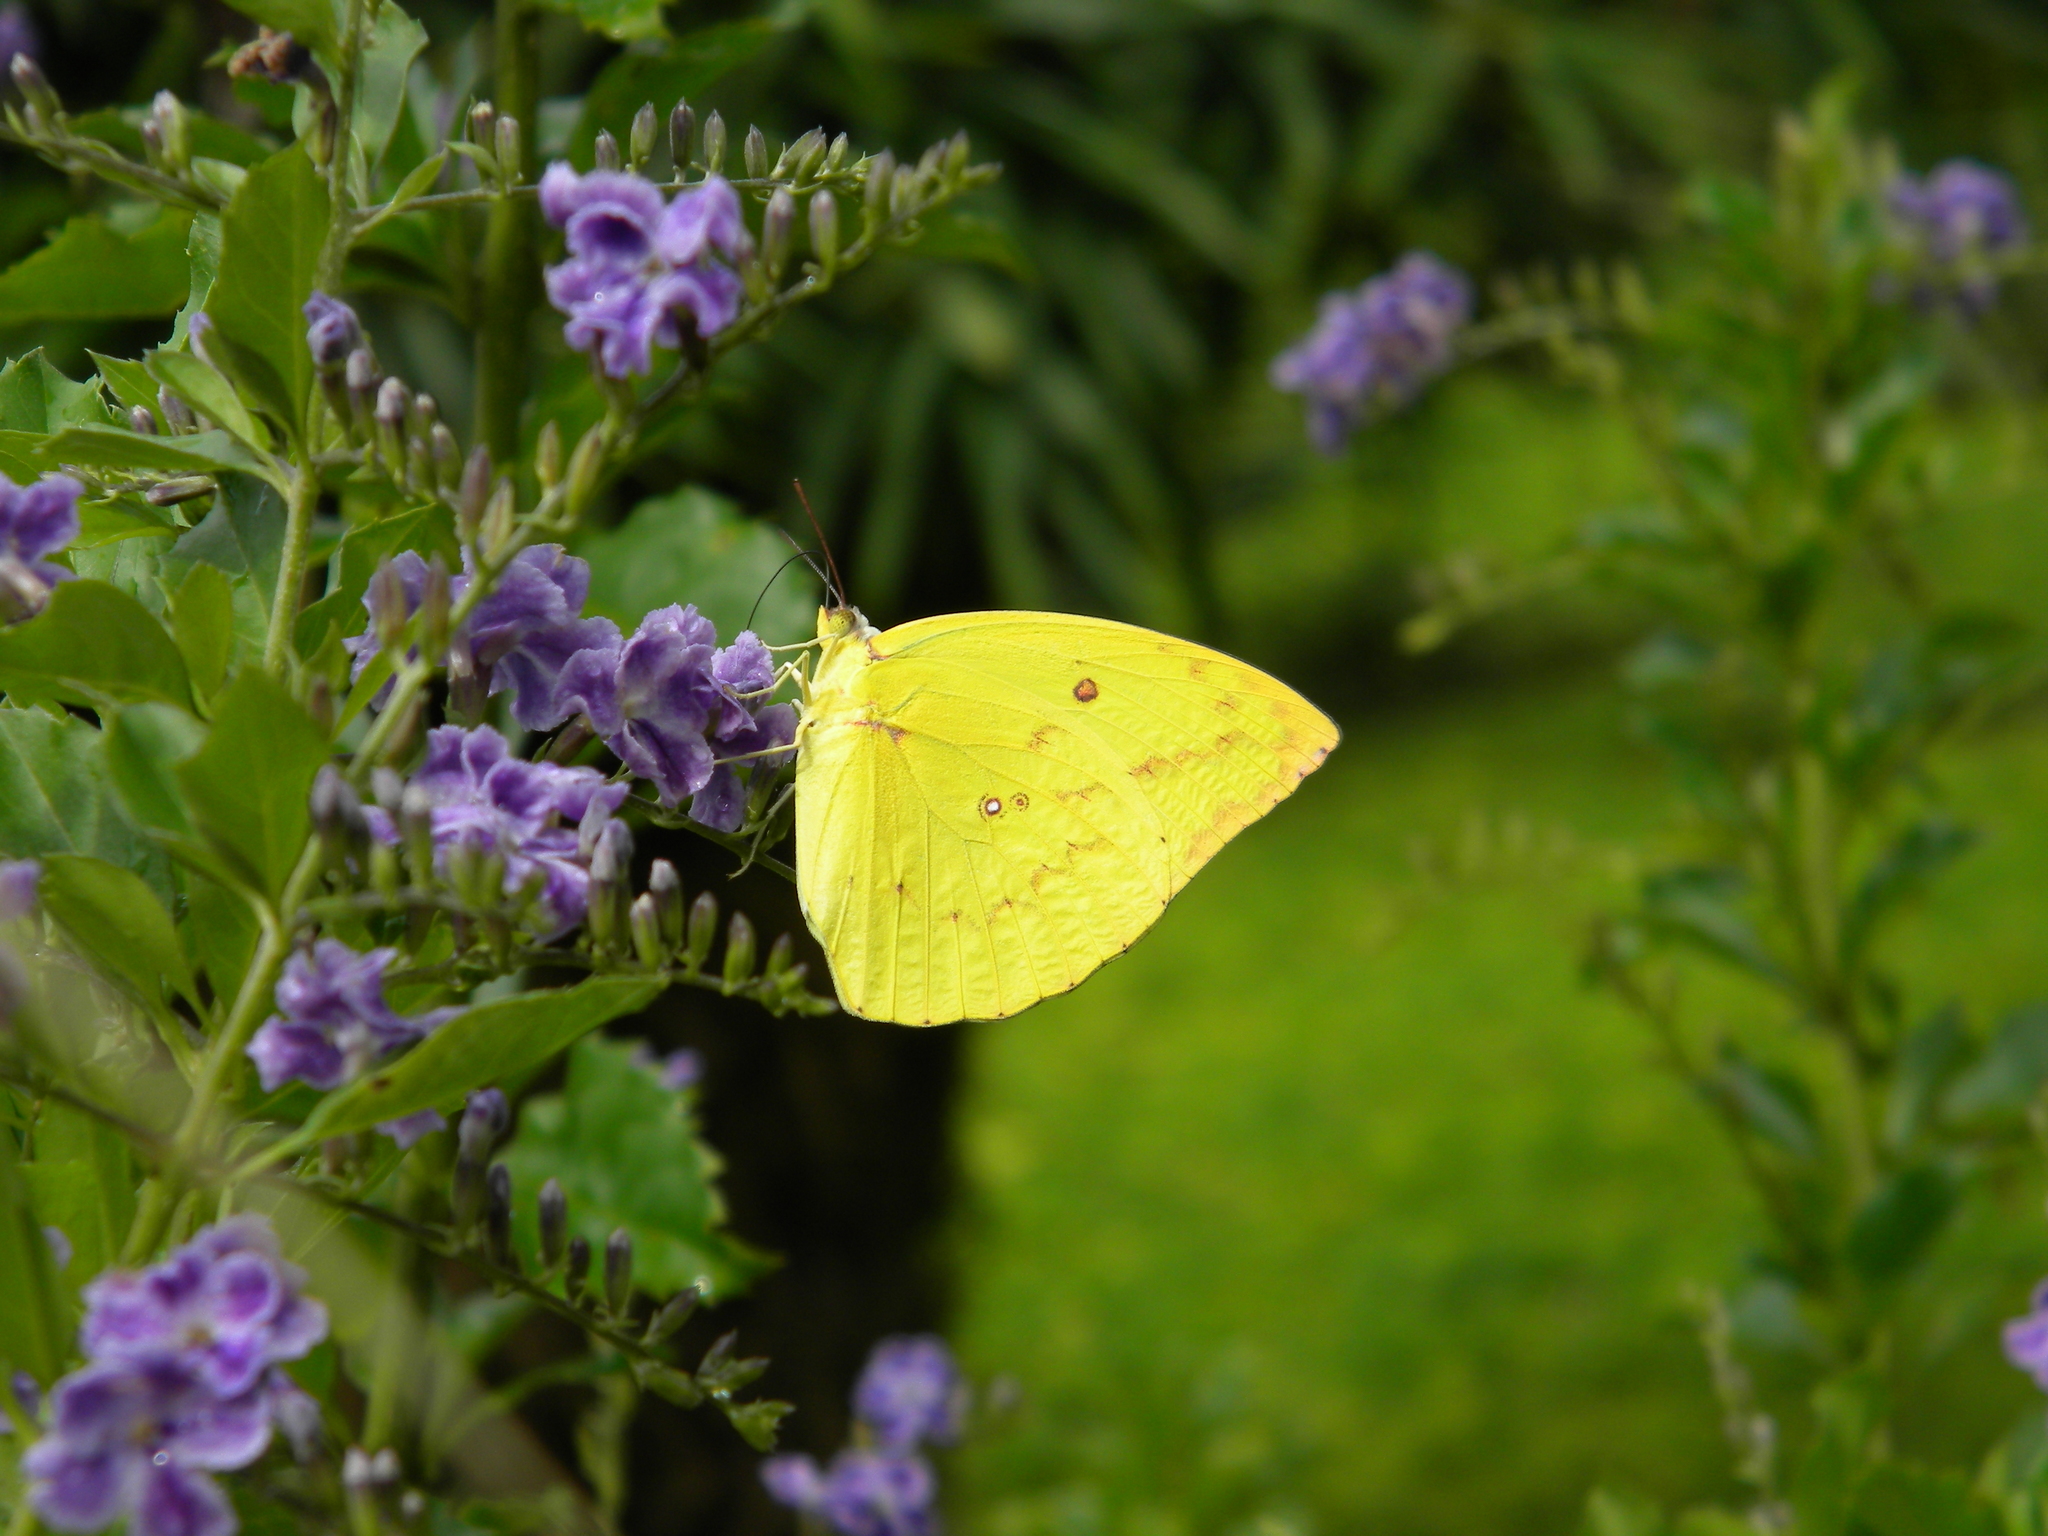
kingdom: Animalia
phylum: Arthropoda
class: Insecta
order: Lepidoptera
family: Pieridae
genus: Catopsilia
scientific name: Catopsilia pomona
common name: Common emigrant
